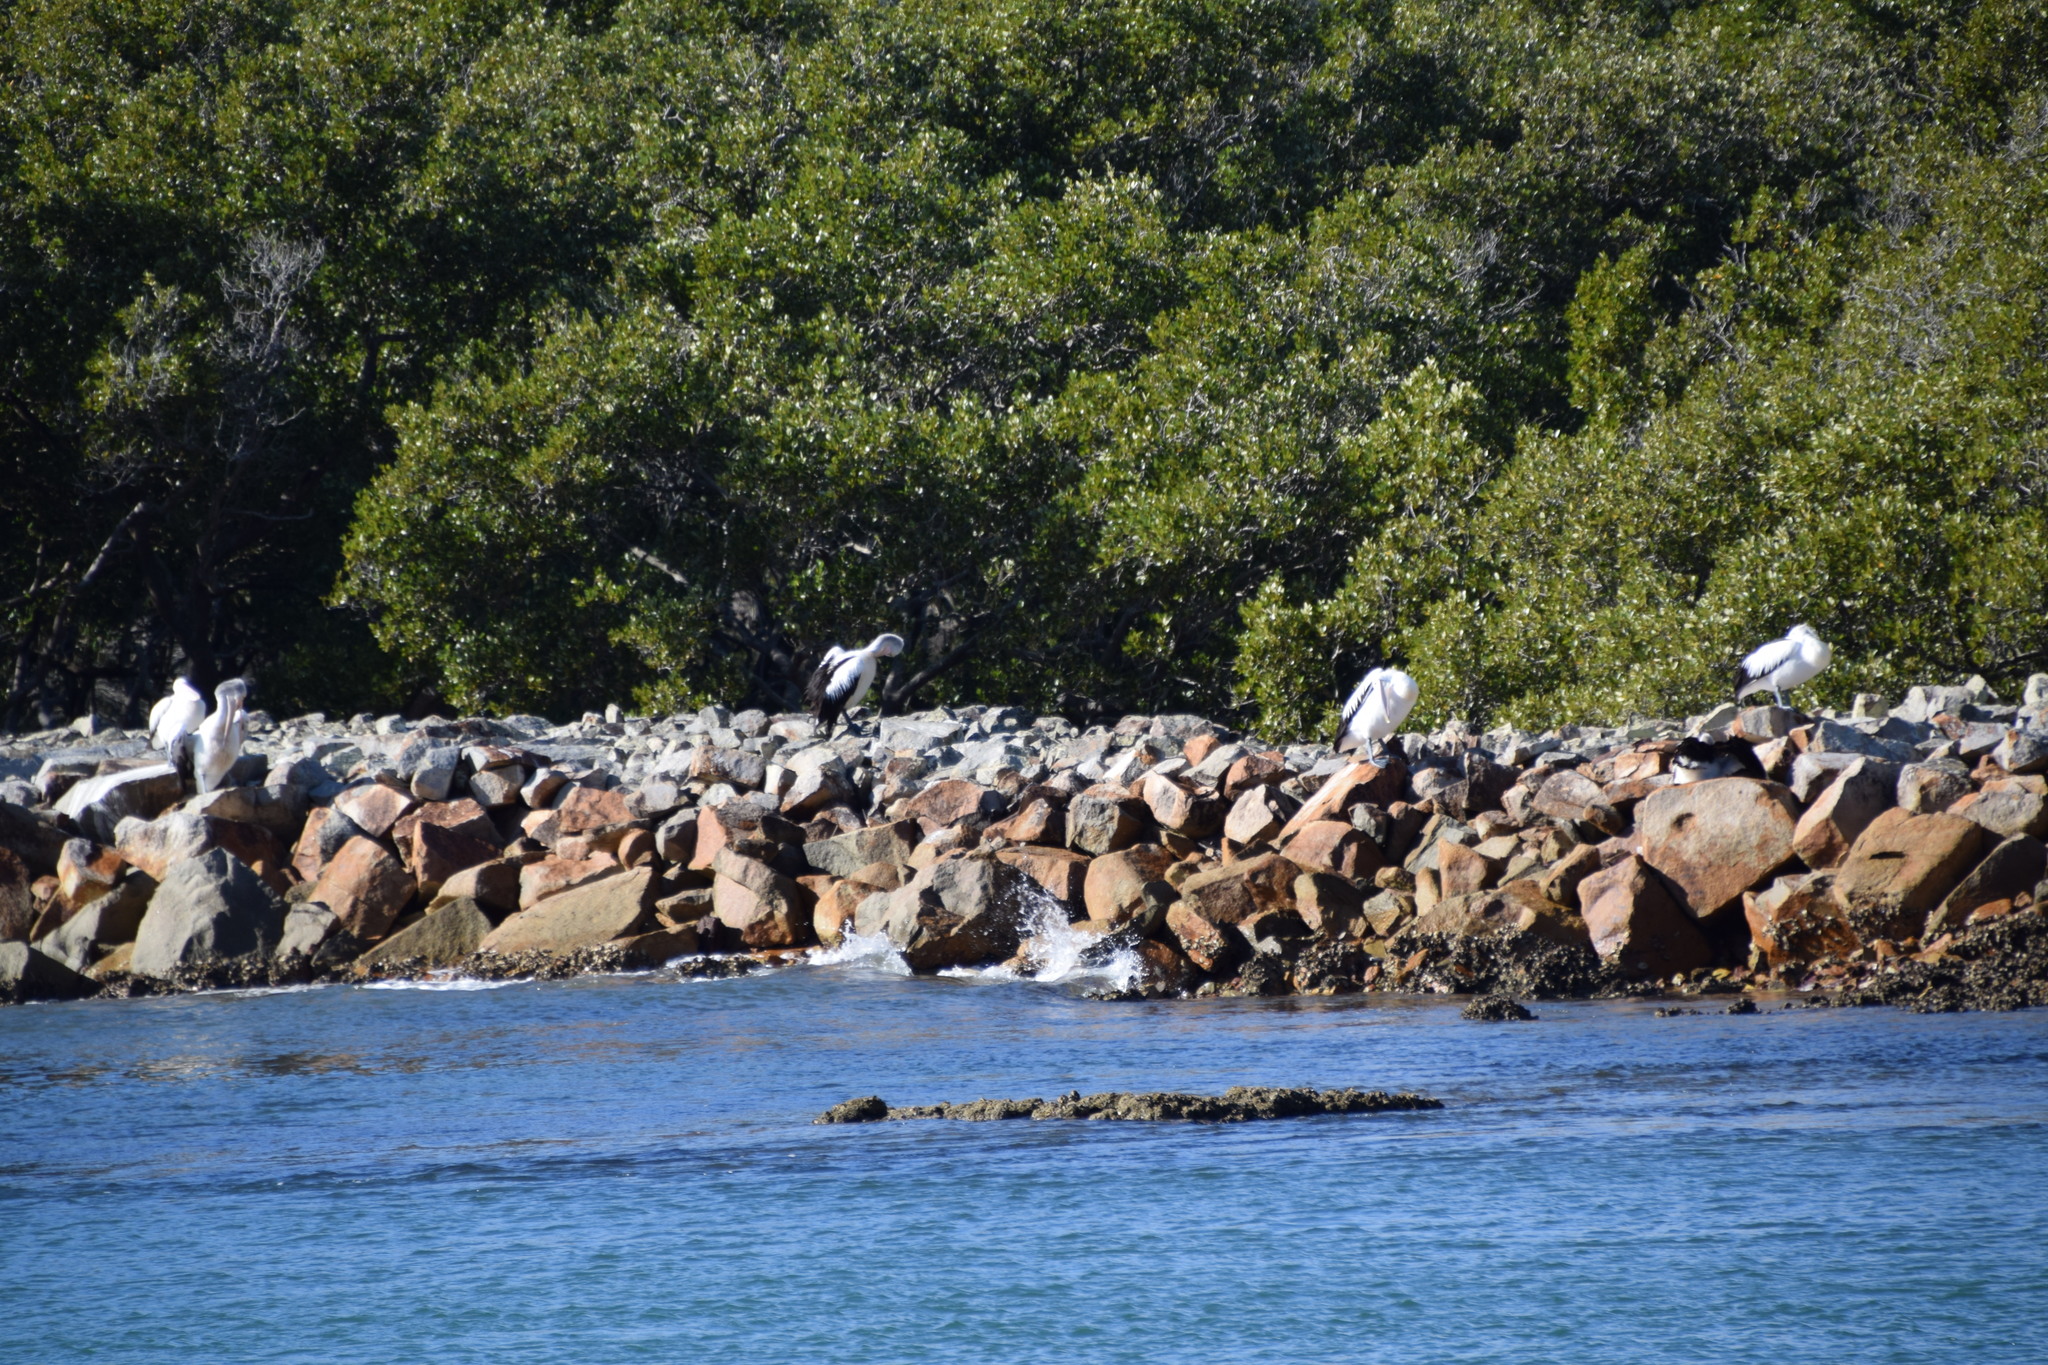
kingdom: Animalia
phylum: Chordata
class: Aves
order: Pelecaniformes
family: Pelecanidae
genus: Pelecanus
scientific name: Pelecanus conspicillatus
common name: Australian pelican
